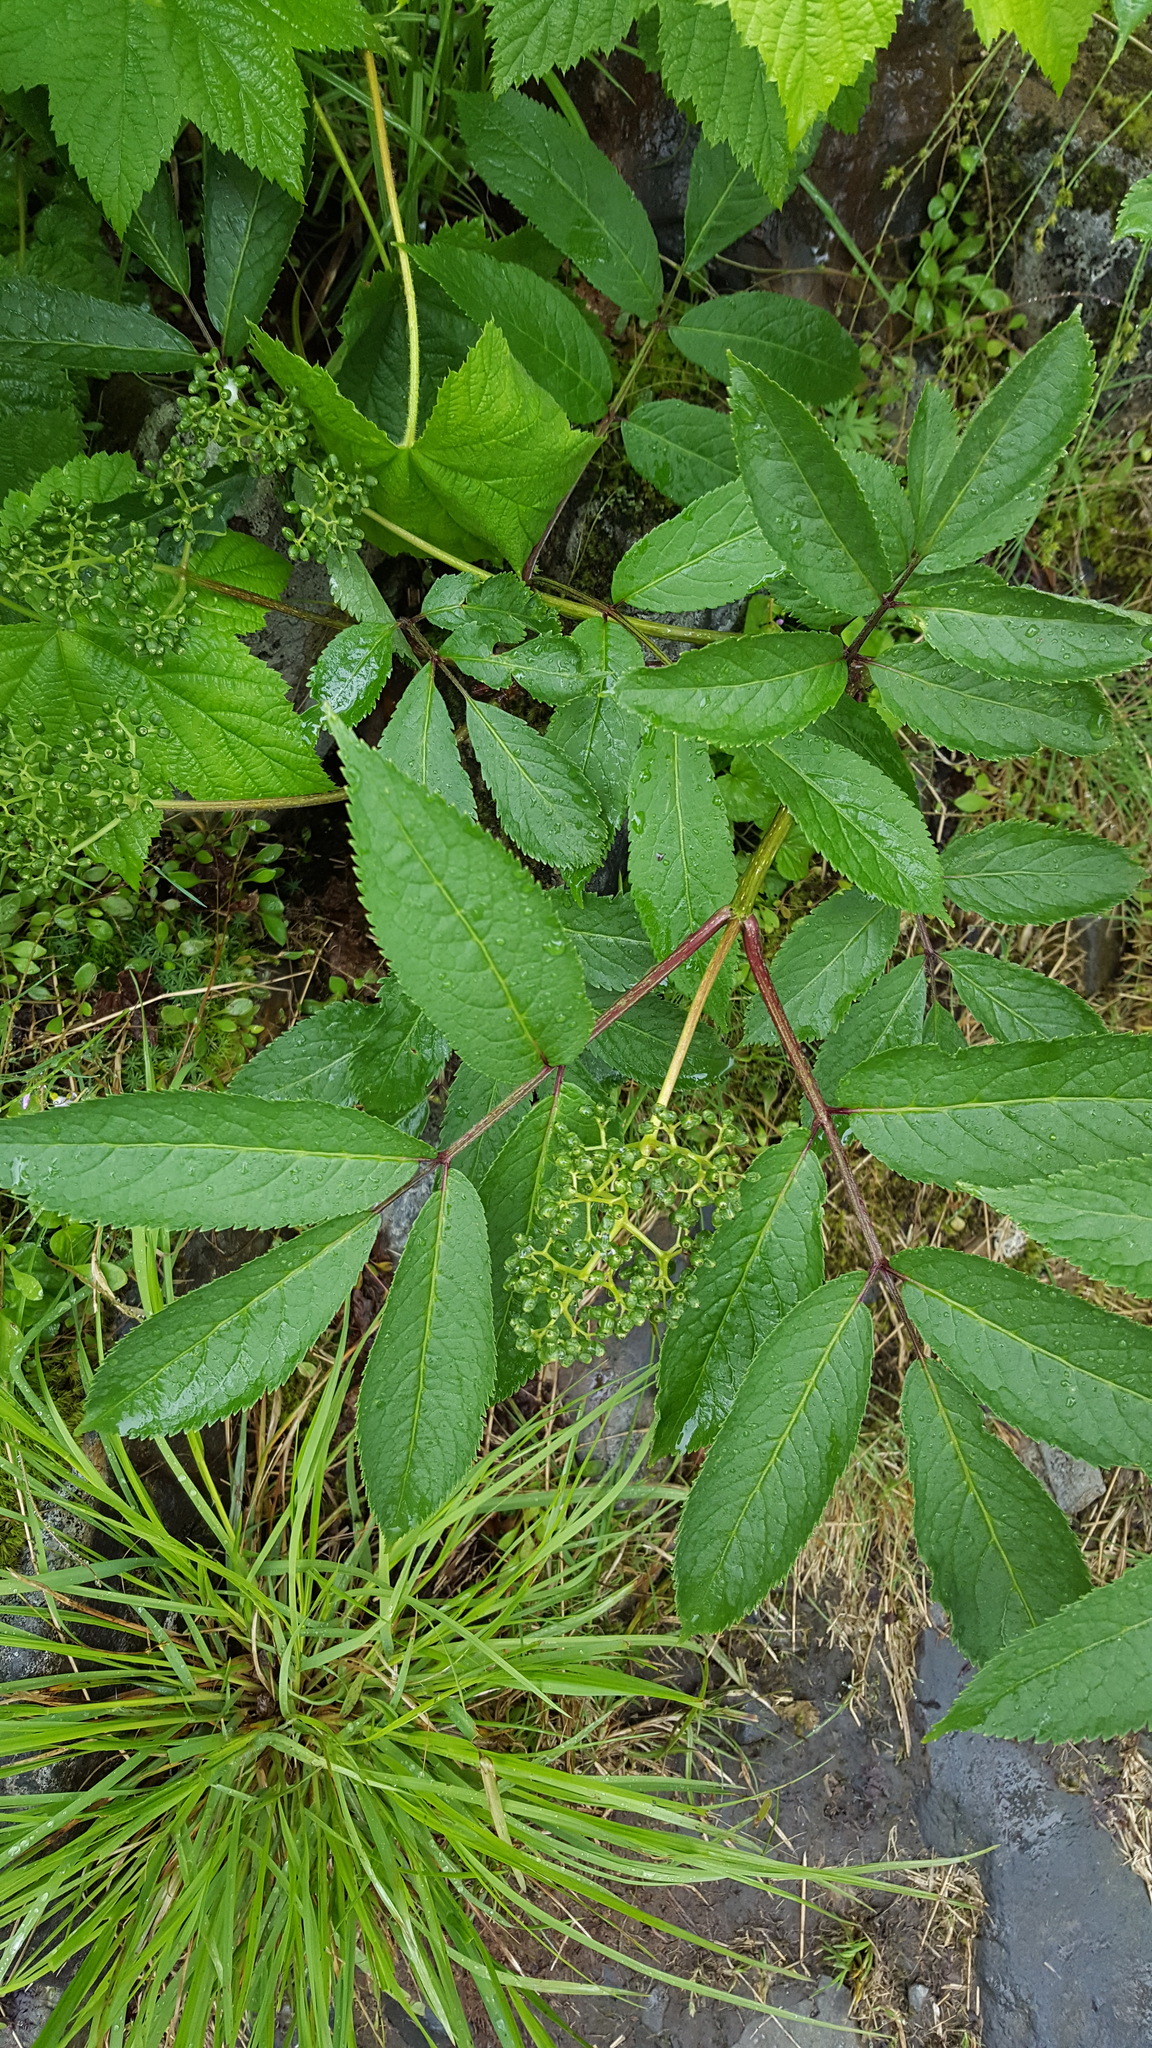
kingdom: Plantae
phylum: Tracheophyta
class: Magnoliopsida
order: Dipsacales
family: Viburnaceae
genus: Sambucus
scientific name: Sambucus racemosa
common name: Red-berried elder
